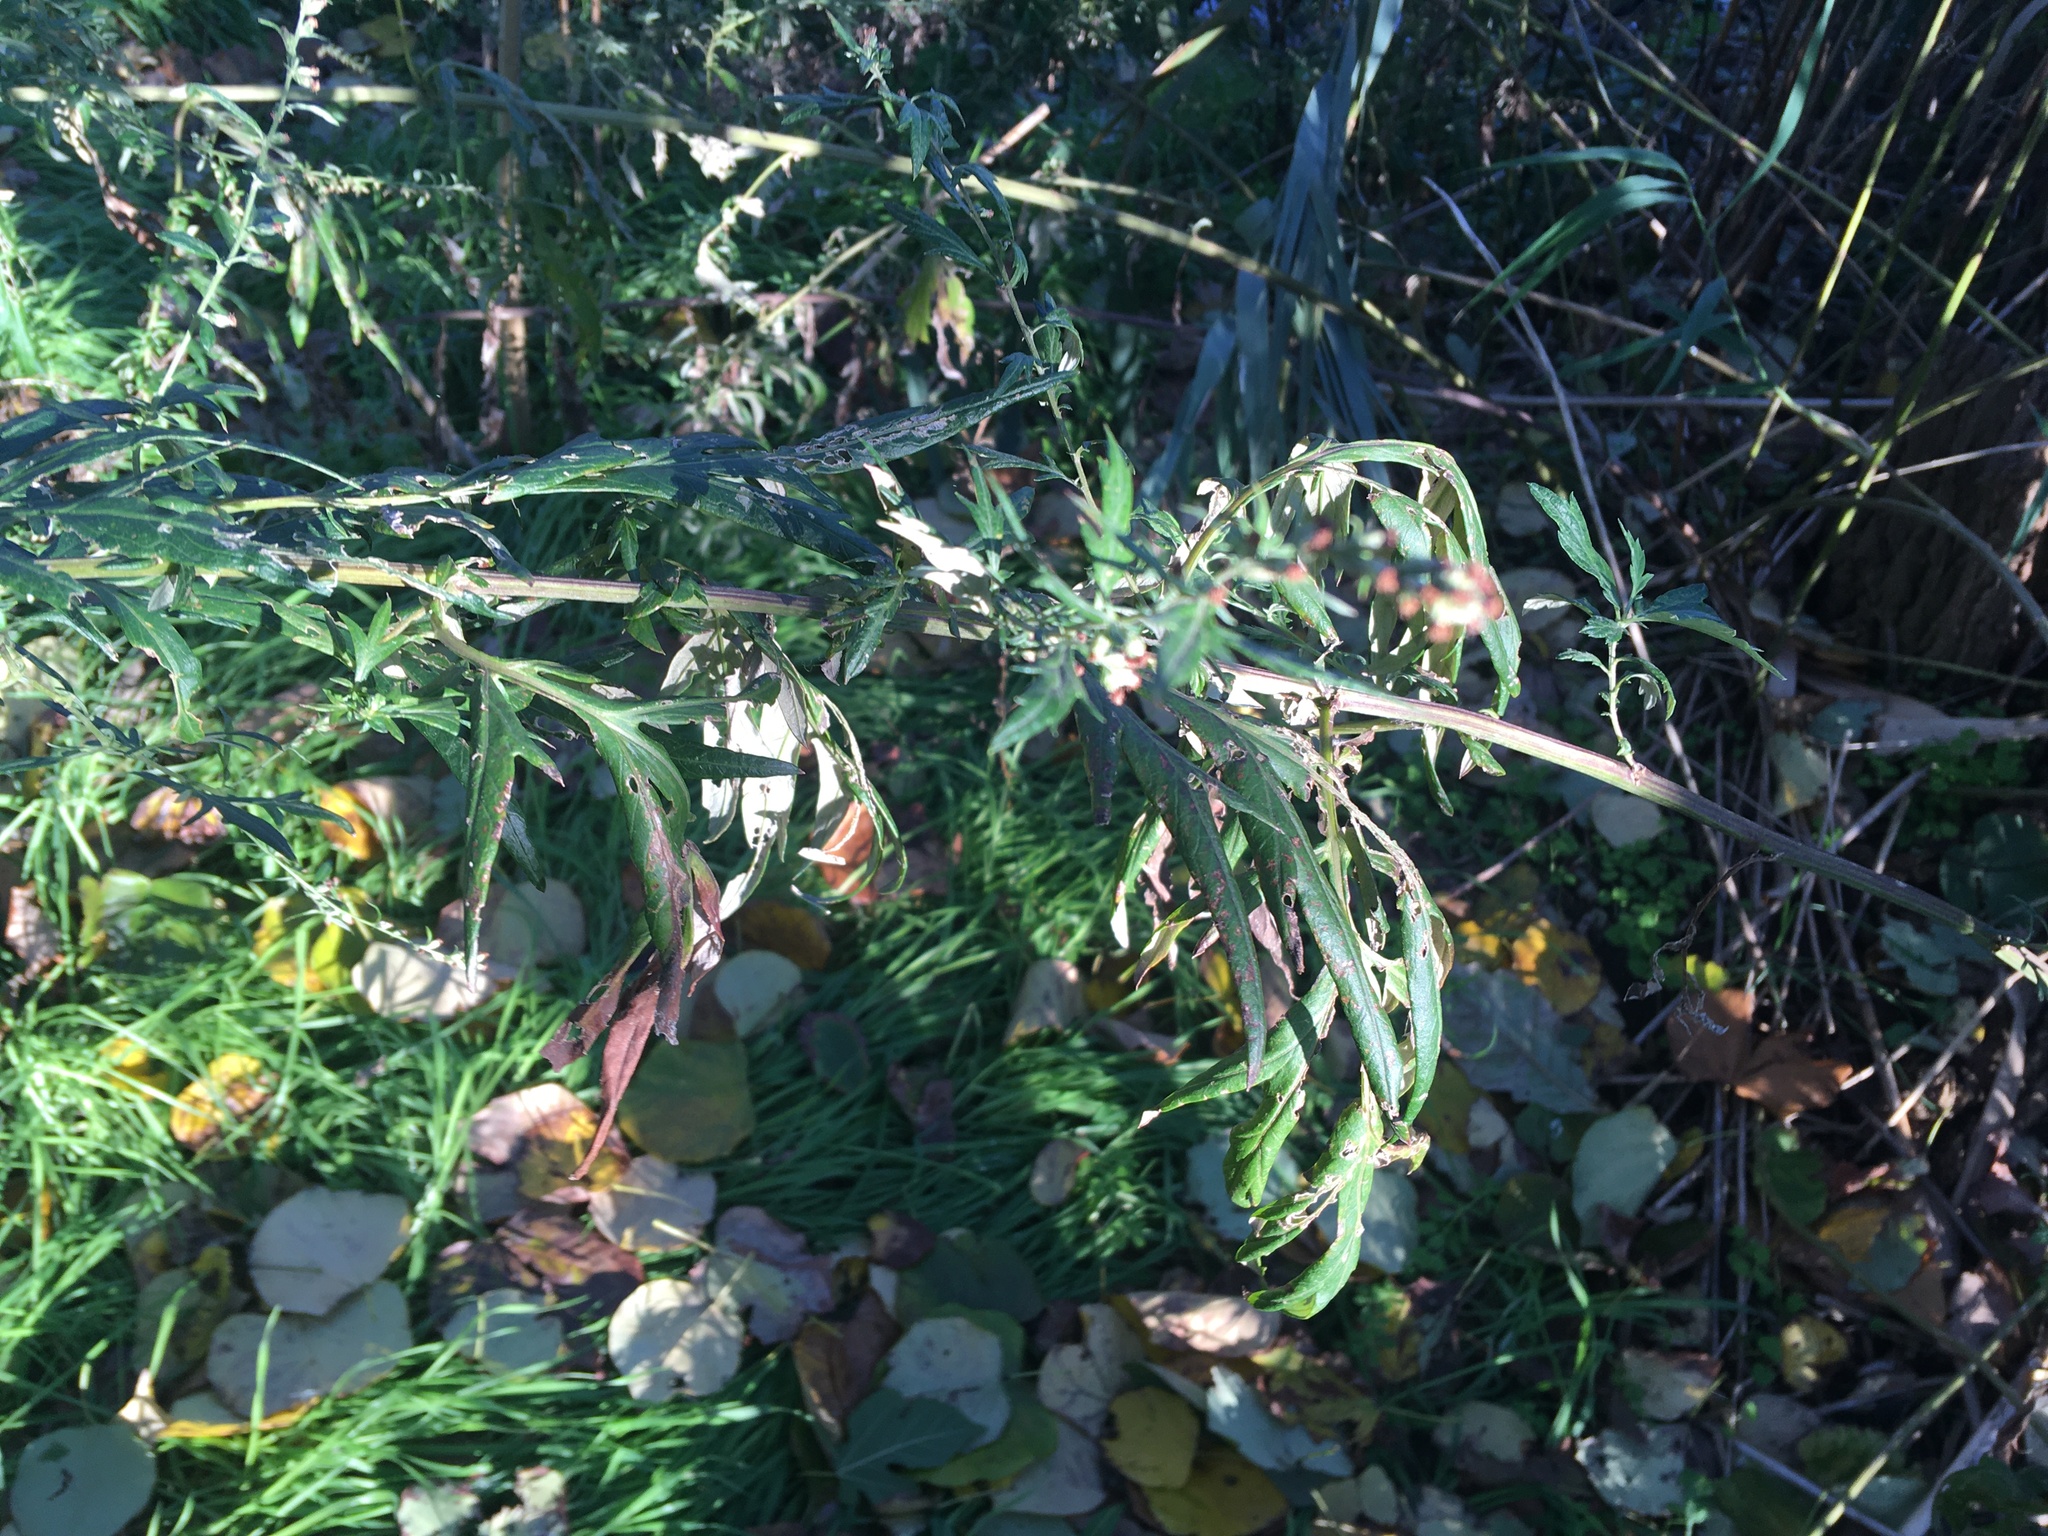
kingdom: Plantae
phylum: Tracheophyta
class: Magnoliopsida
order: Asterales
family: Asteraceae
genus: Artemisia
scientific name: Artemisia vulgaris
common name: Mugwort
